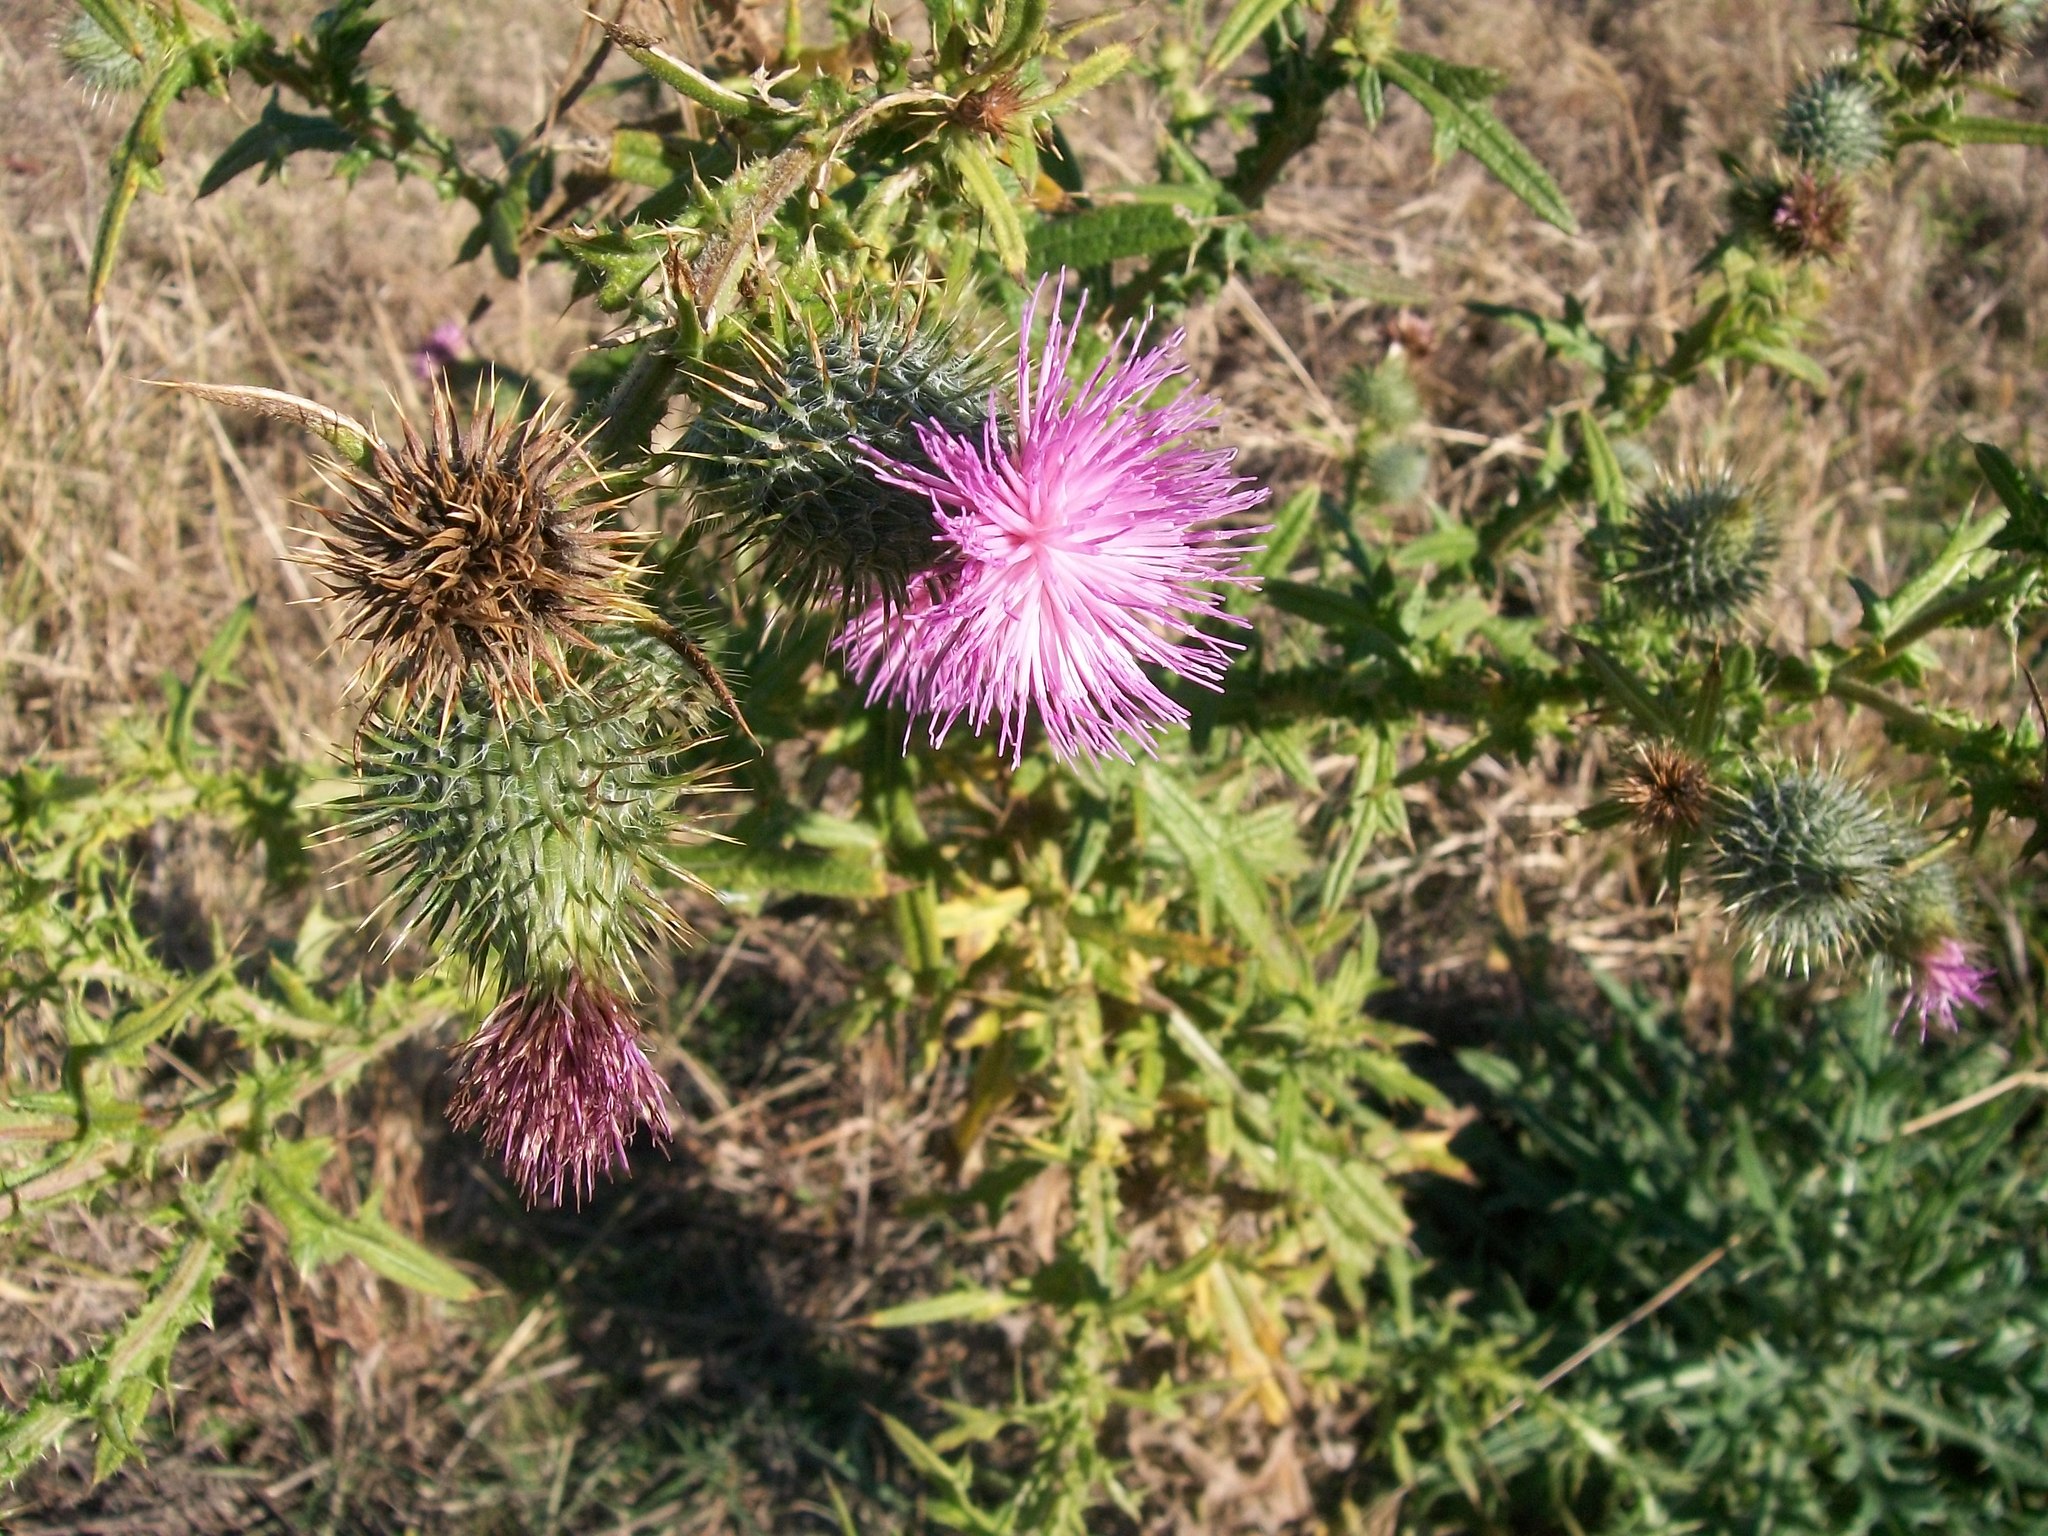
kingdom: Plantae
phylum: Tracheophyta
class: Magnoliopsida
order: Asterales
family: Asteraceae
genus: Cirsium
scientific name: Cirsium vulgare
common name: Bull thistle
